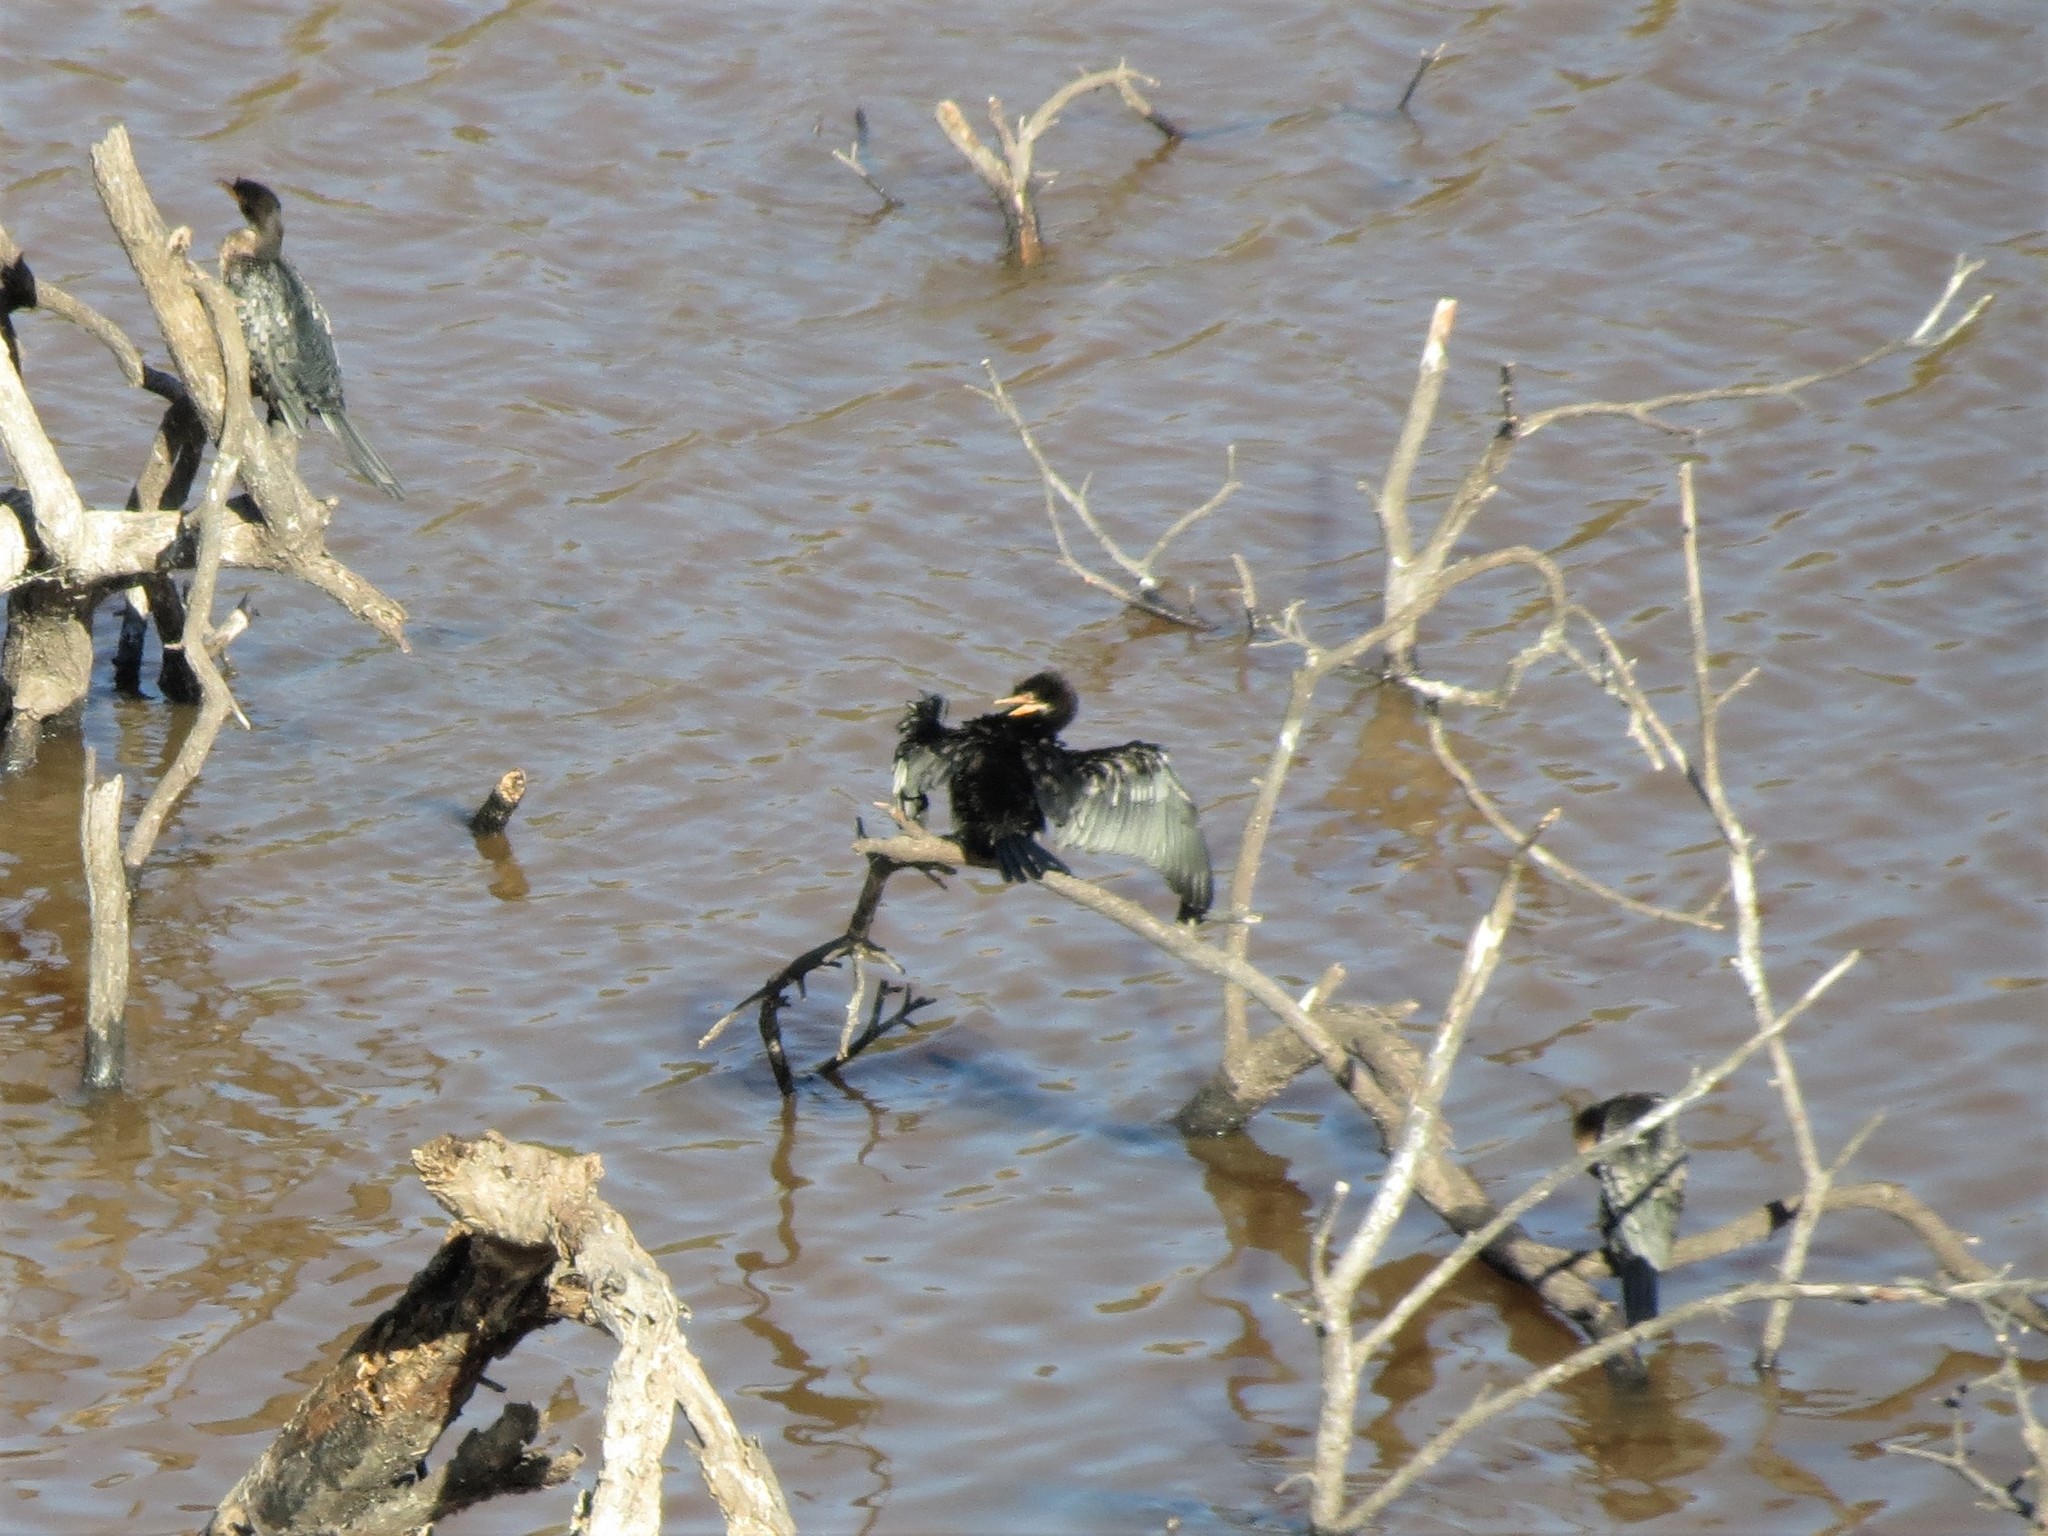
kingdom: Animalia
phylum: Chordata
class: Aves
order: Suliformes
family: Phalacrocoracidae
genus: Microcarbo
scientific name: Microcarbo africanus
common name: Long-tailed cormorant
